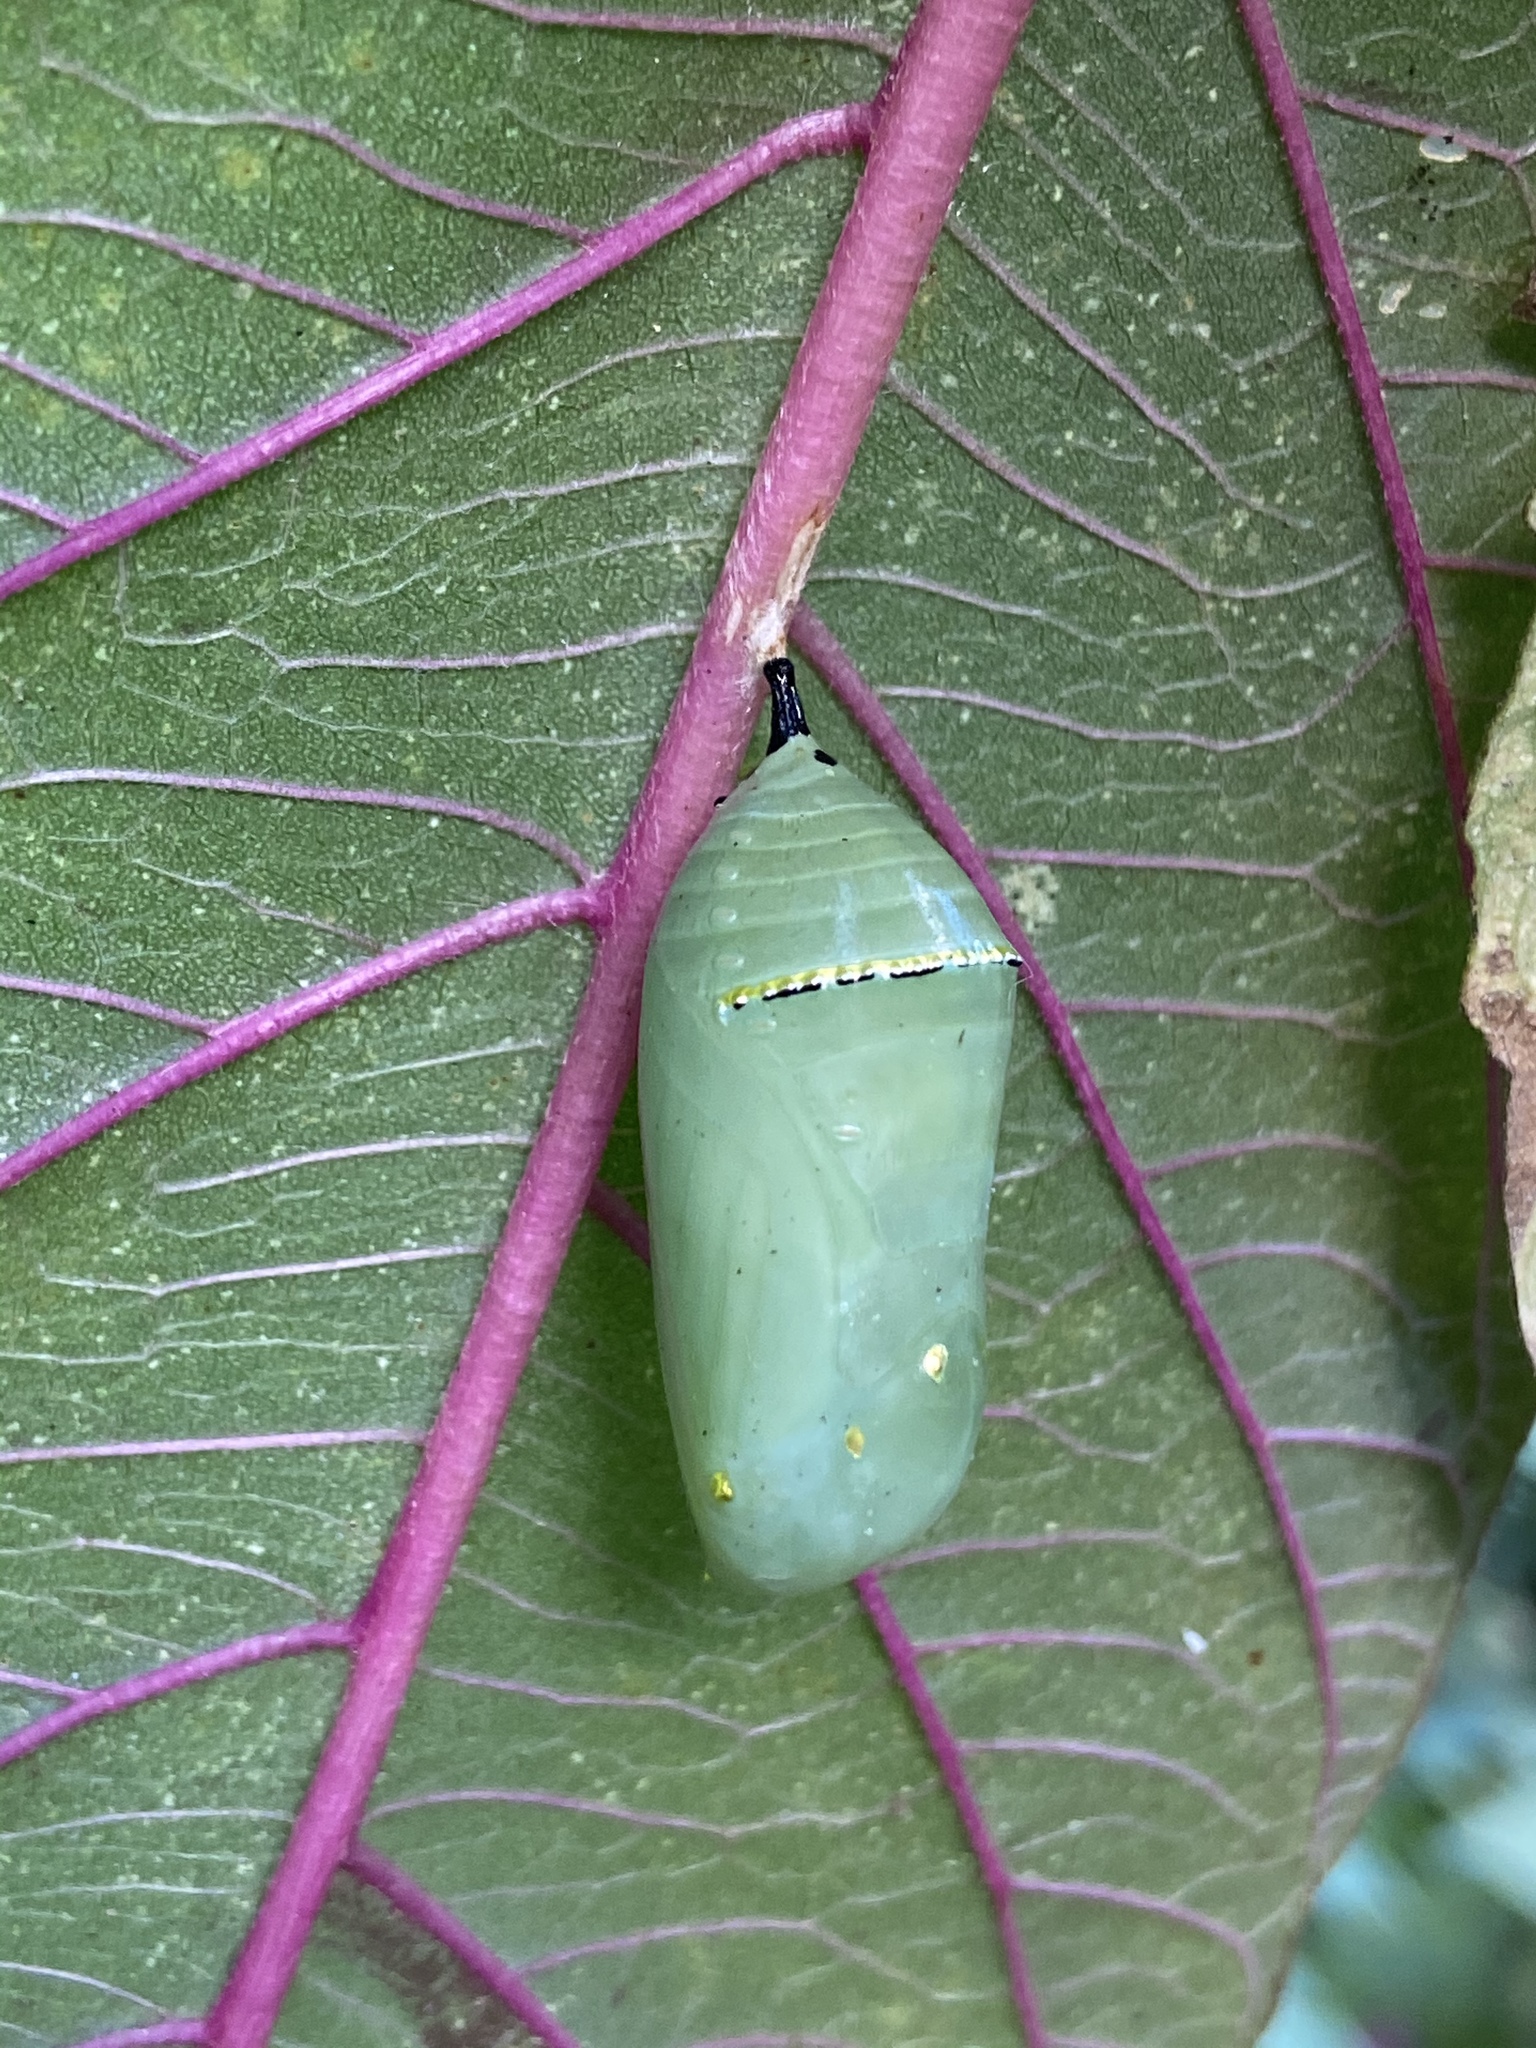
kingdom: Animalia
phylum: Arthropoda
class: Insecta
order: Lepidoptera
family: Nymphalidae
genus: Danaus
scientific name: Danaus plexippus
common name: Monarch
